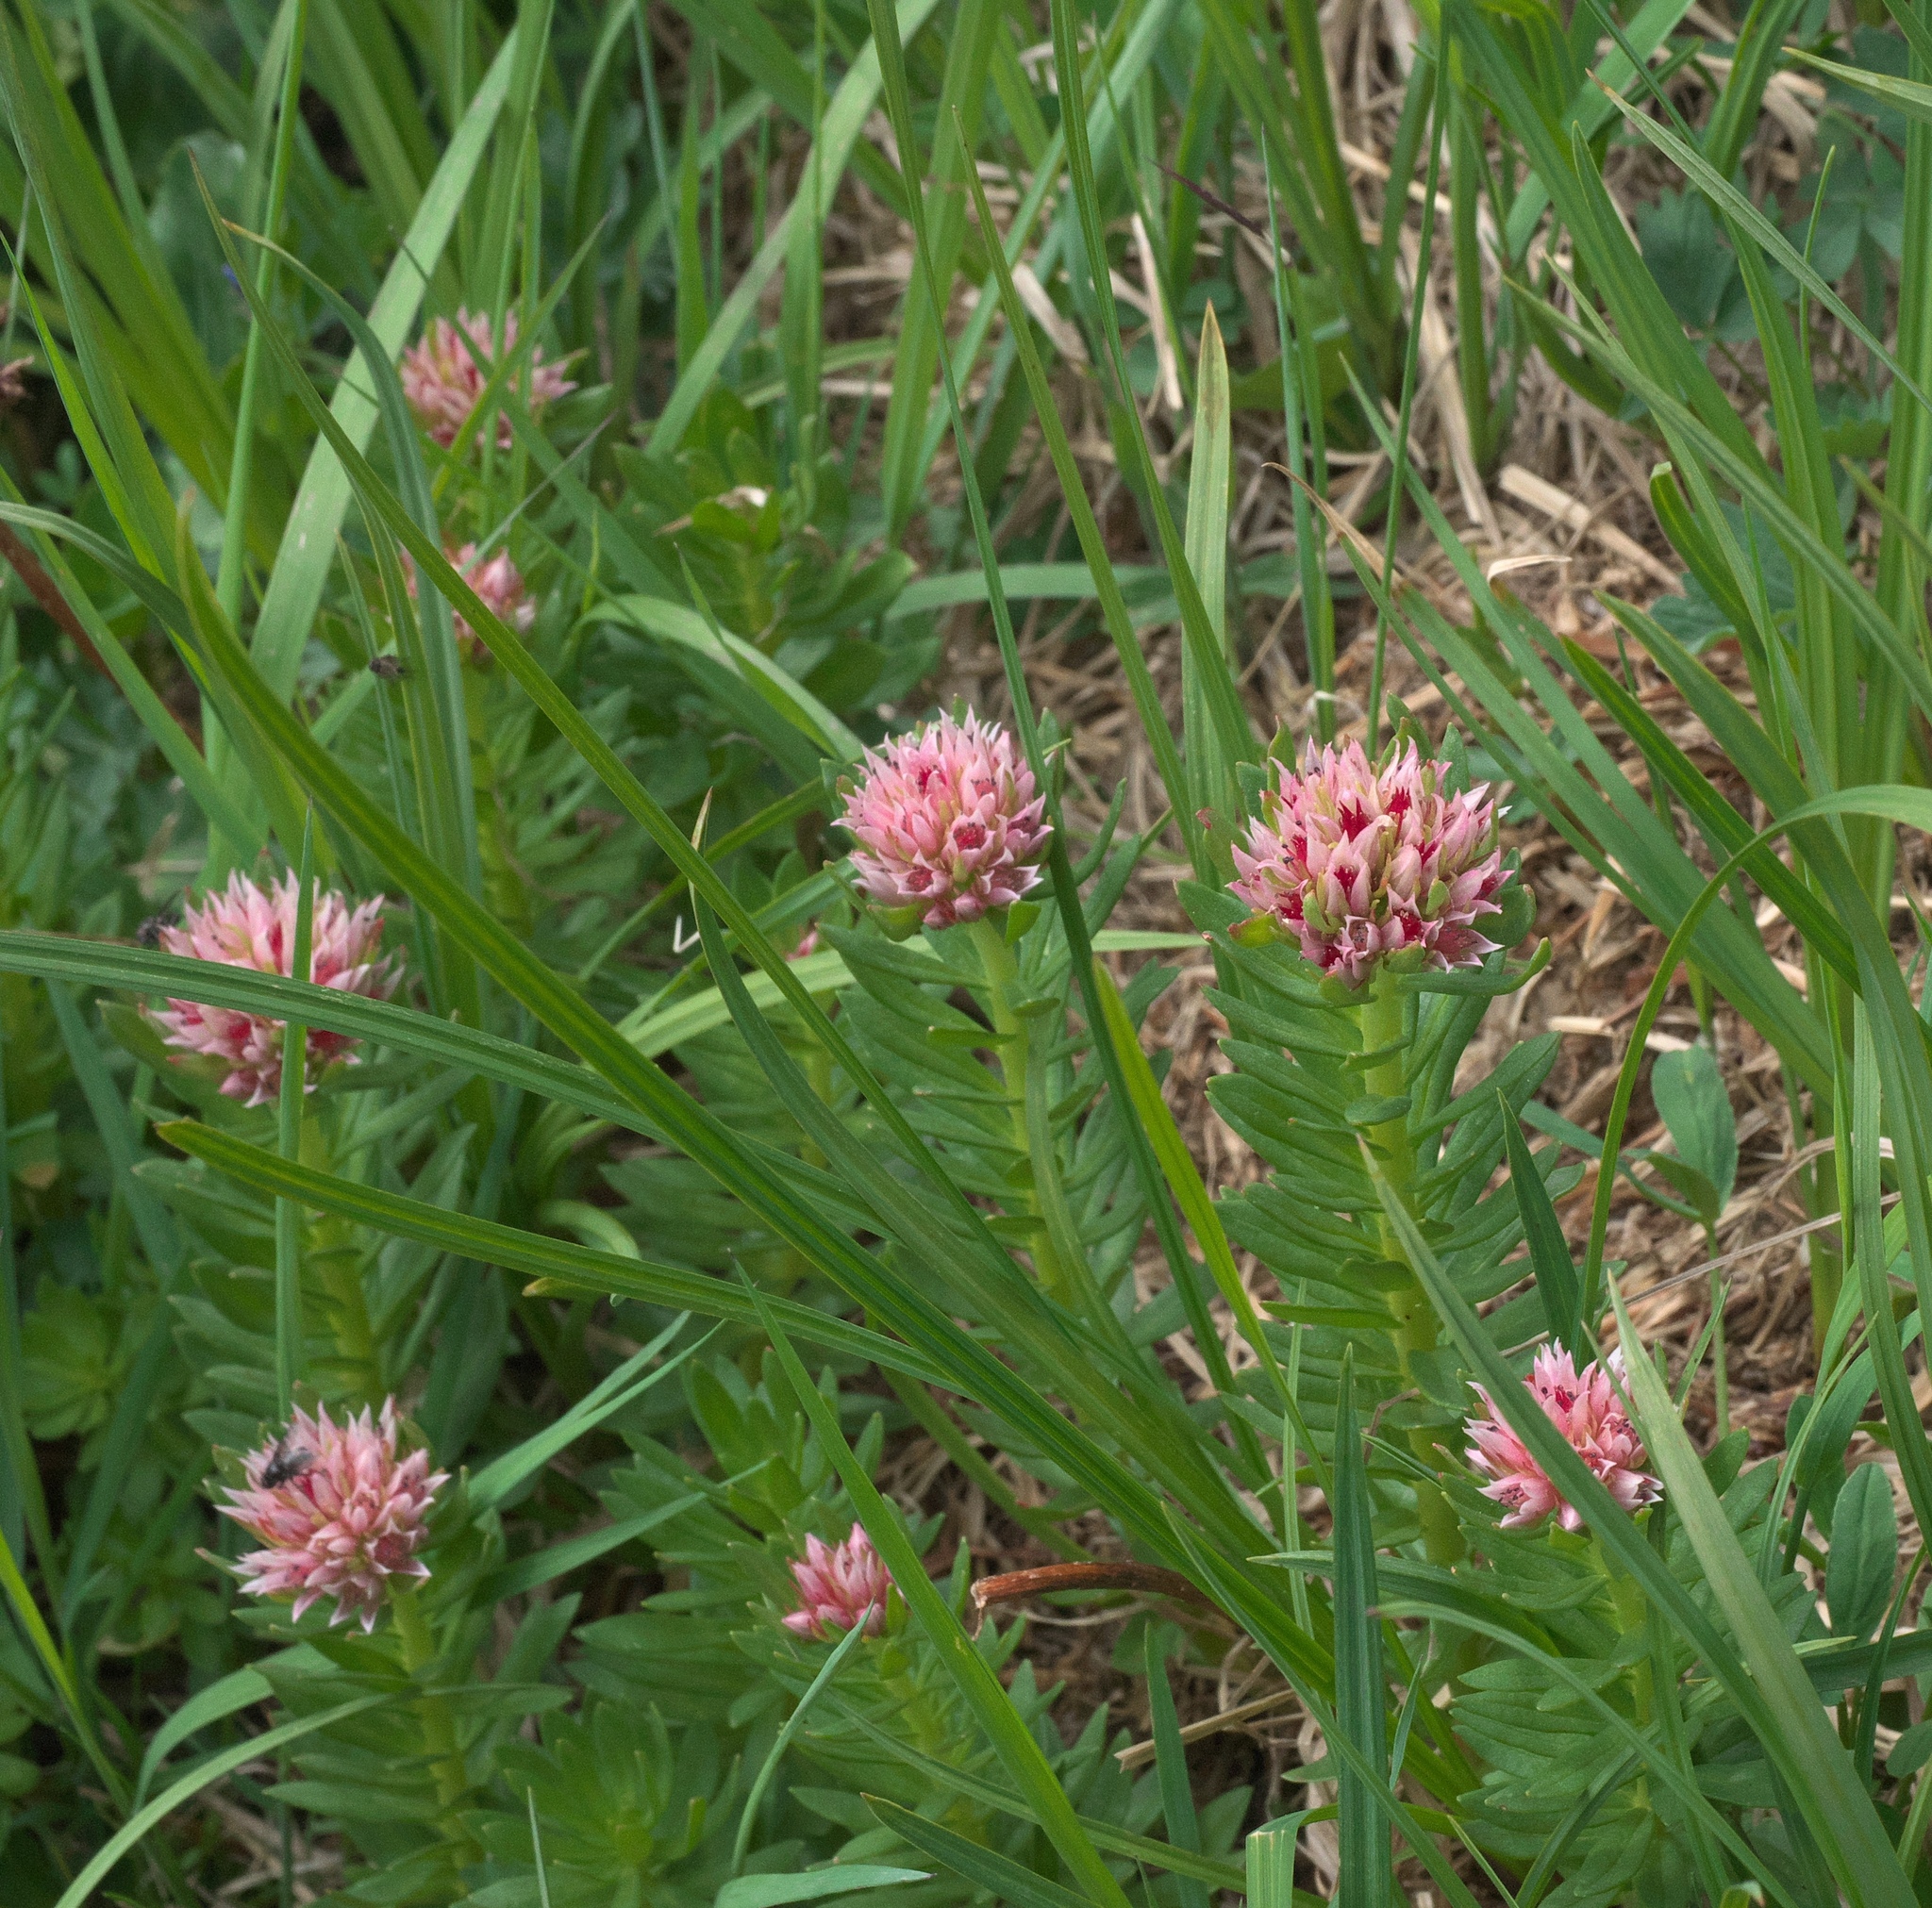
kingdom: Plantae
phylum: Tracheophyta
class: Magnoliopsida
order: Saxifragales
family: Crassulaceae
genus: Rhodiola
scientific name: Rhodiola rhodantha
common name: Red orpine
